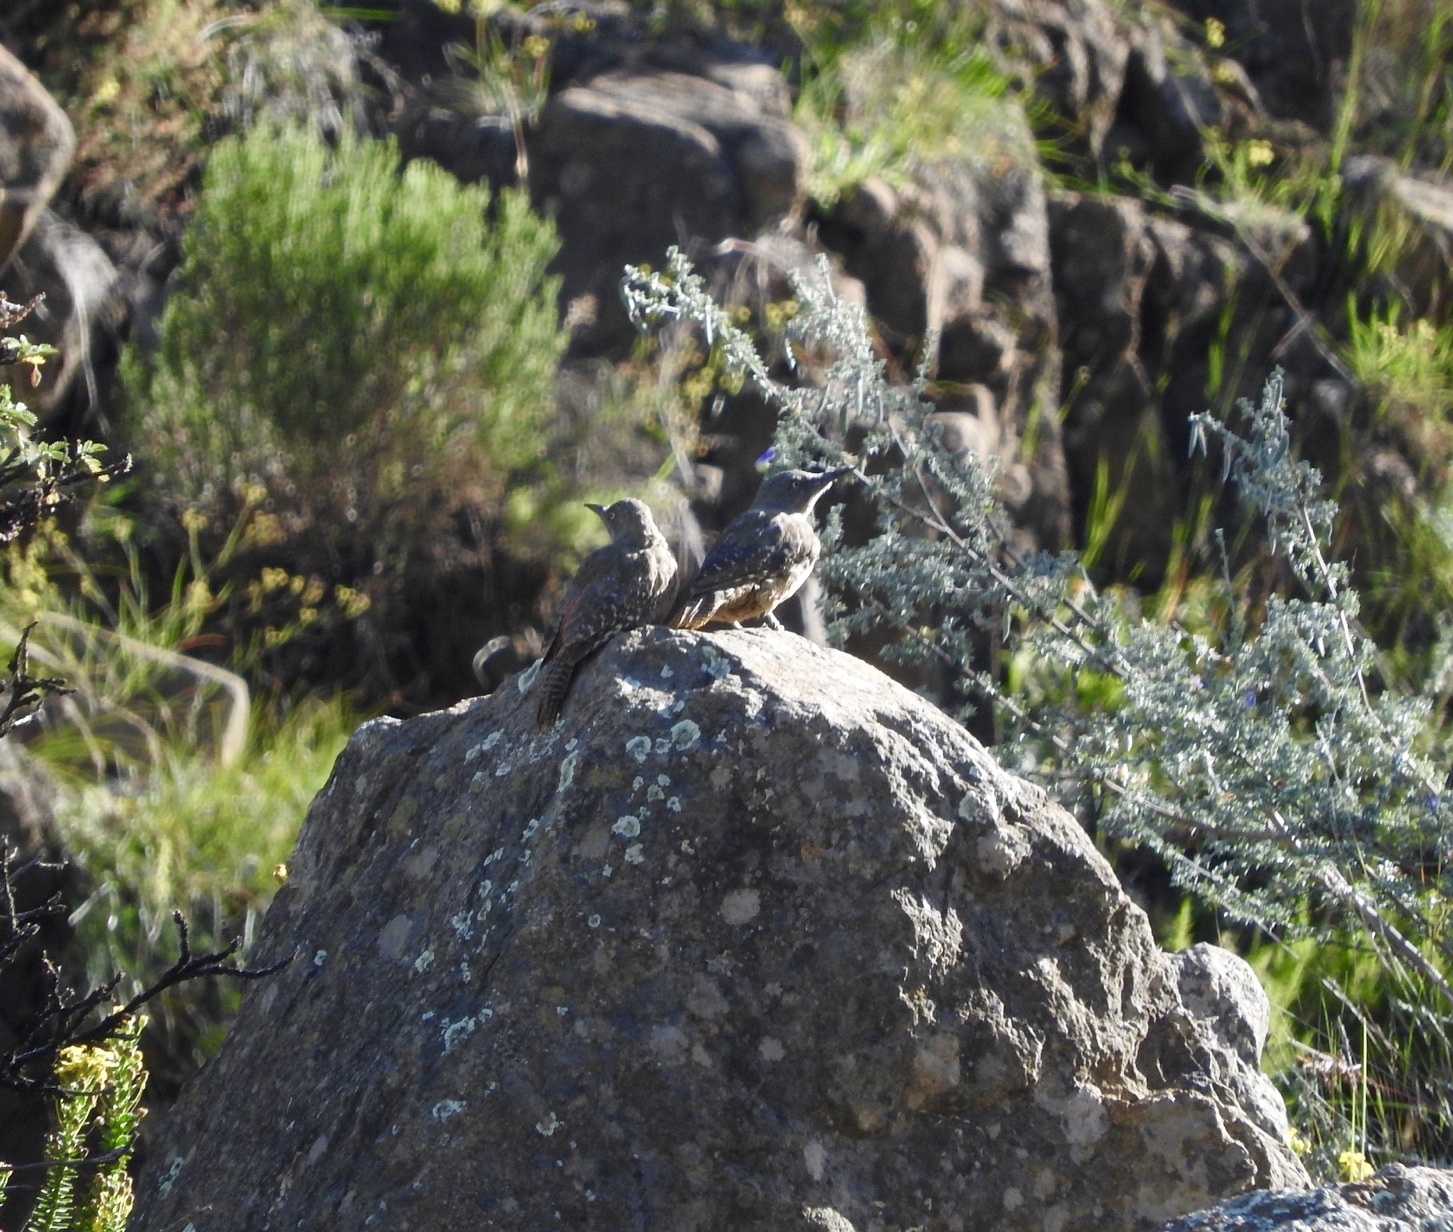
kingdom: Animalia
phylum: Chordata
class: Aves
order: Piciformes
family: Picidae
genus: Geocolaptes
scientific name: Geocolaptes olivaceus
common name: Ground woodpecker
